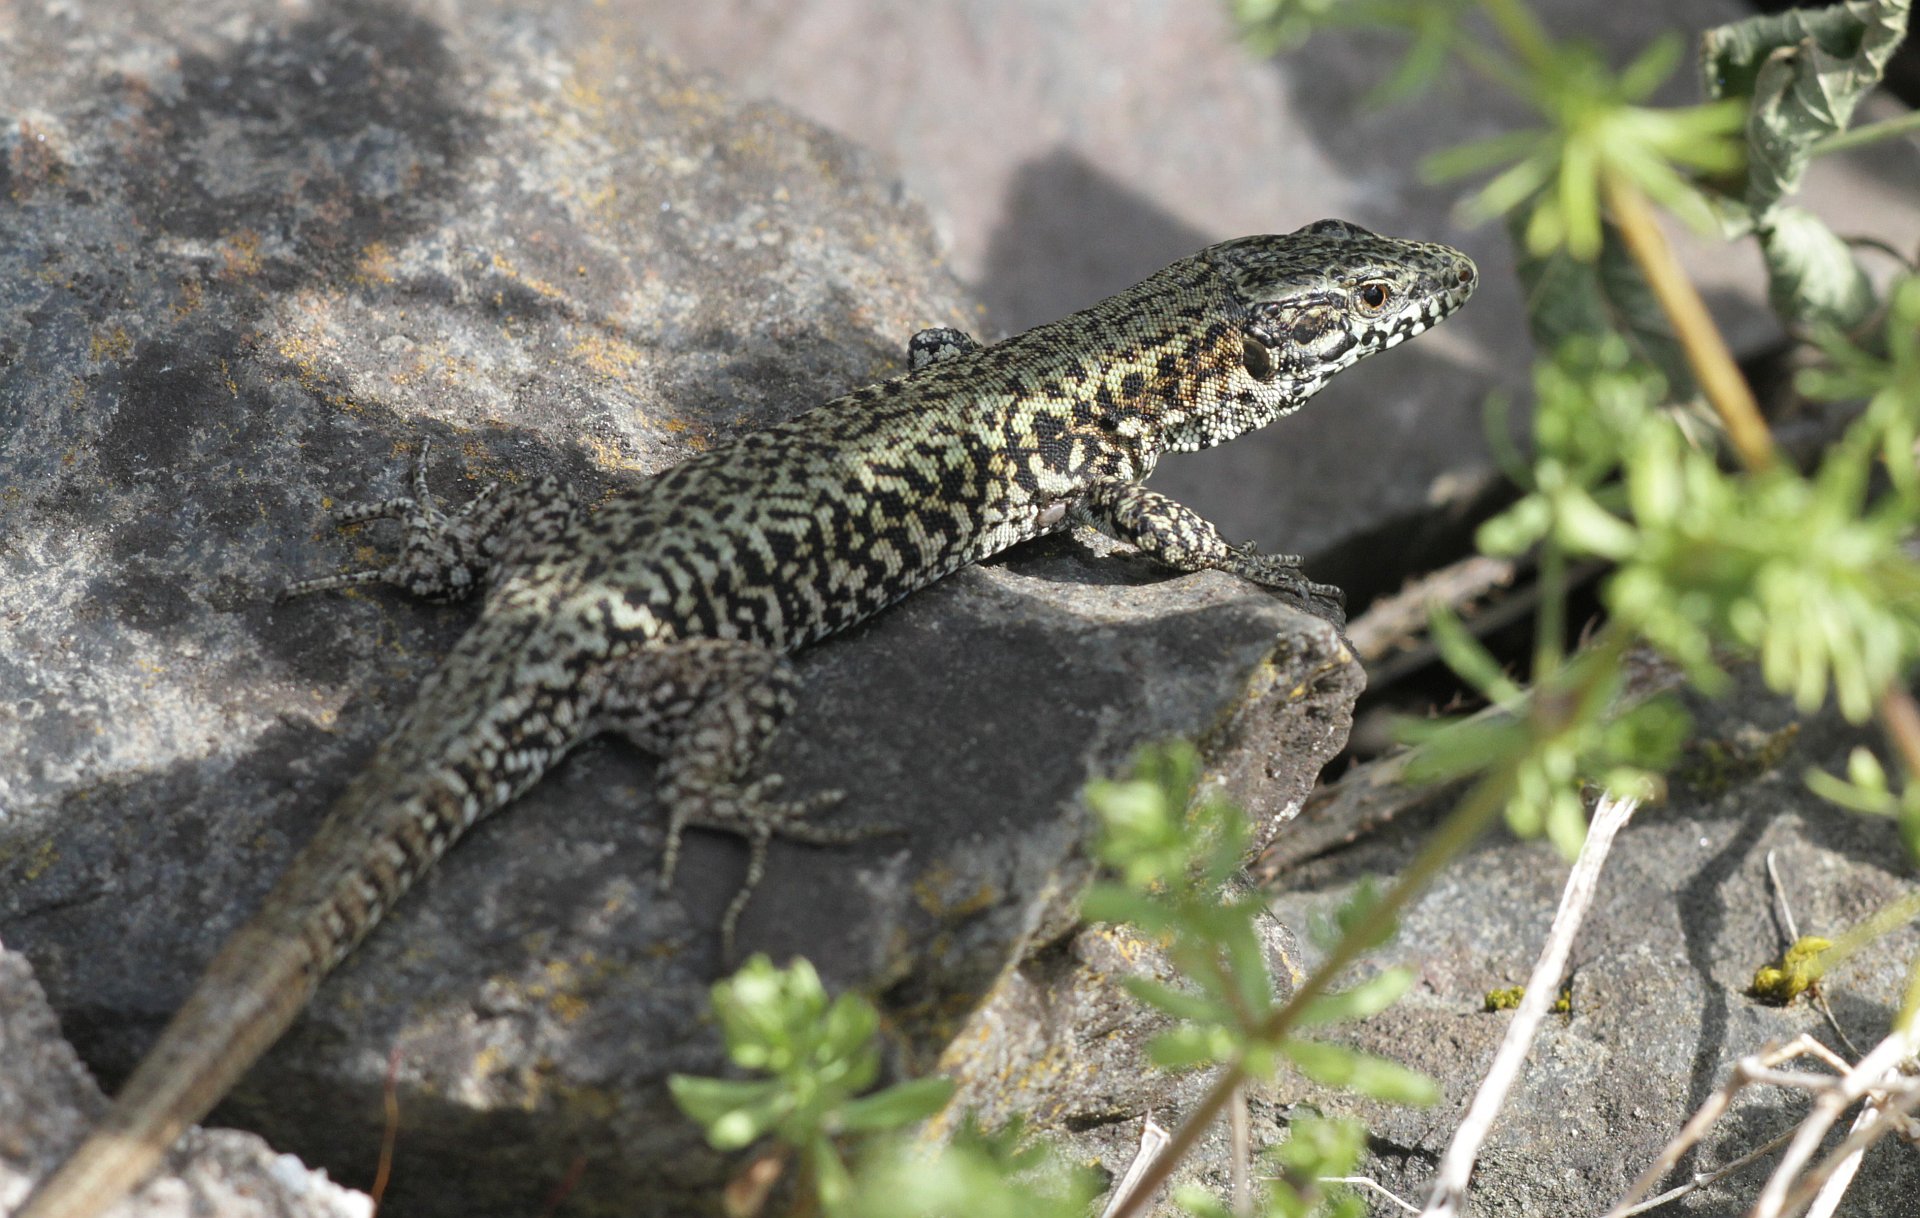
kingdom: Animalia
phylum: Chordata
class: Squamata
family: Lacertidae
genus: Podarcis
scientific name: Podarcis muralis
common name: Common wall lizard
